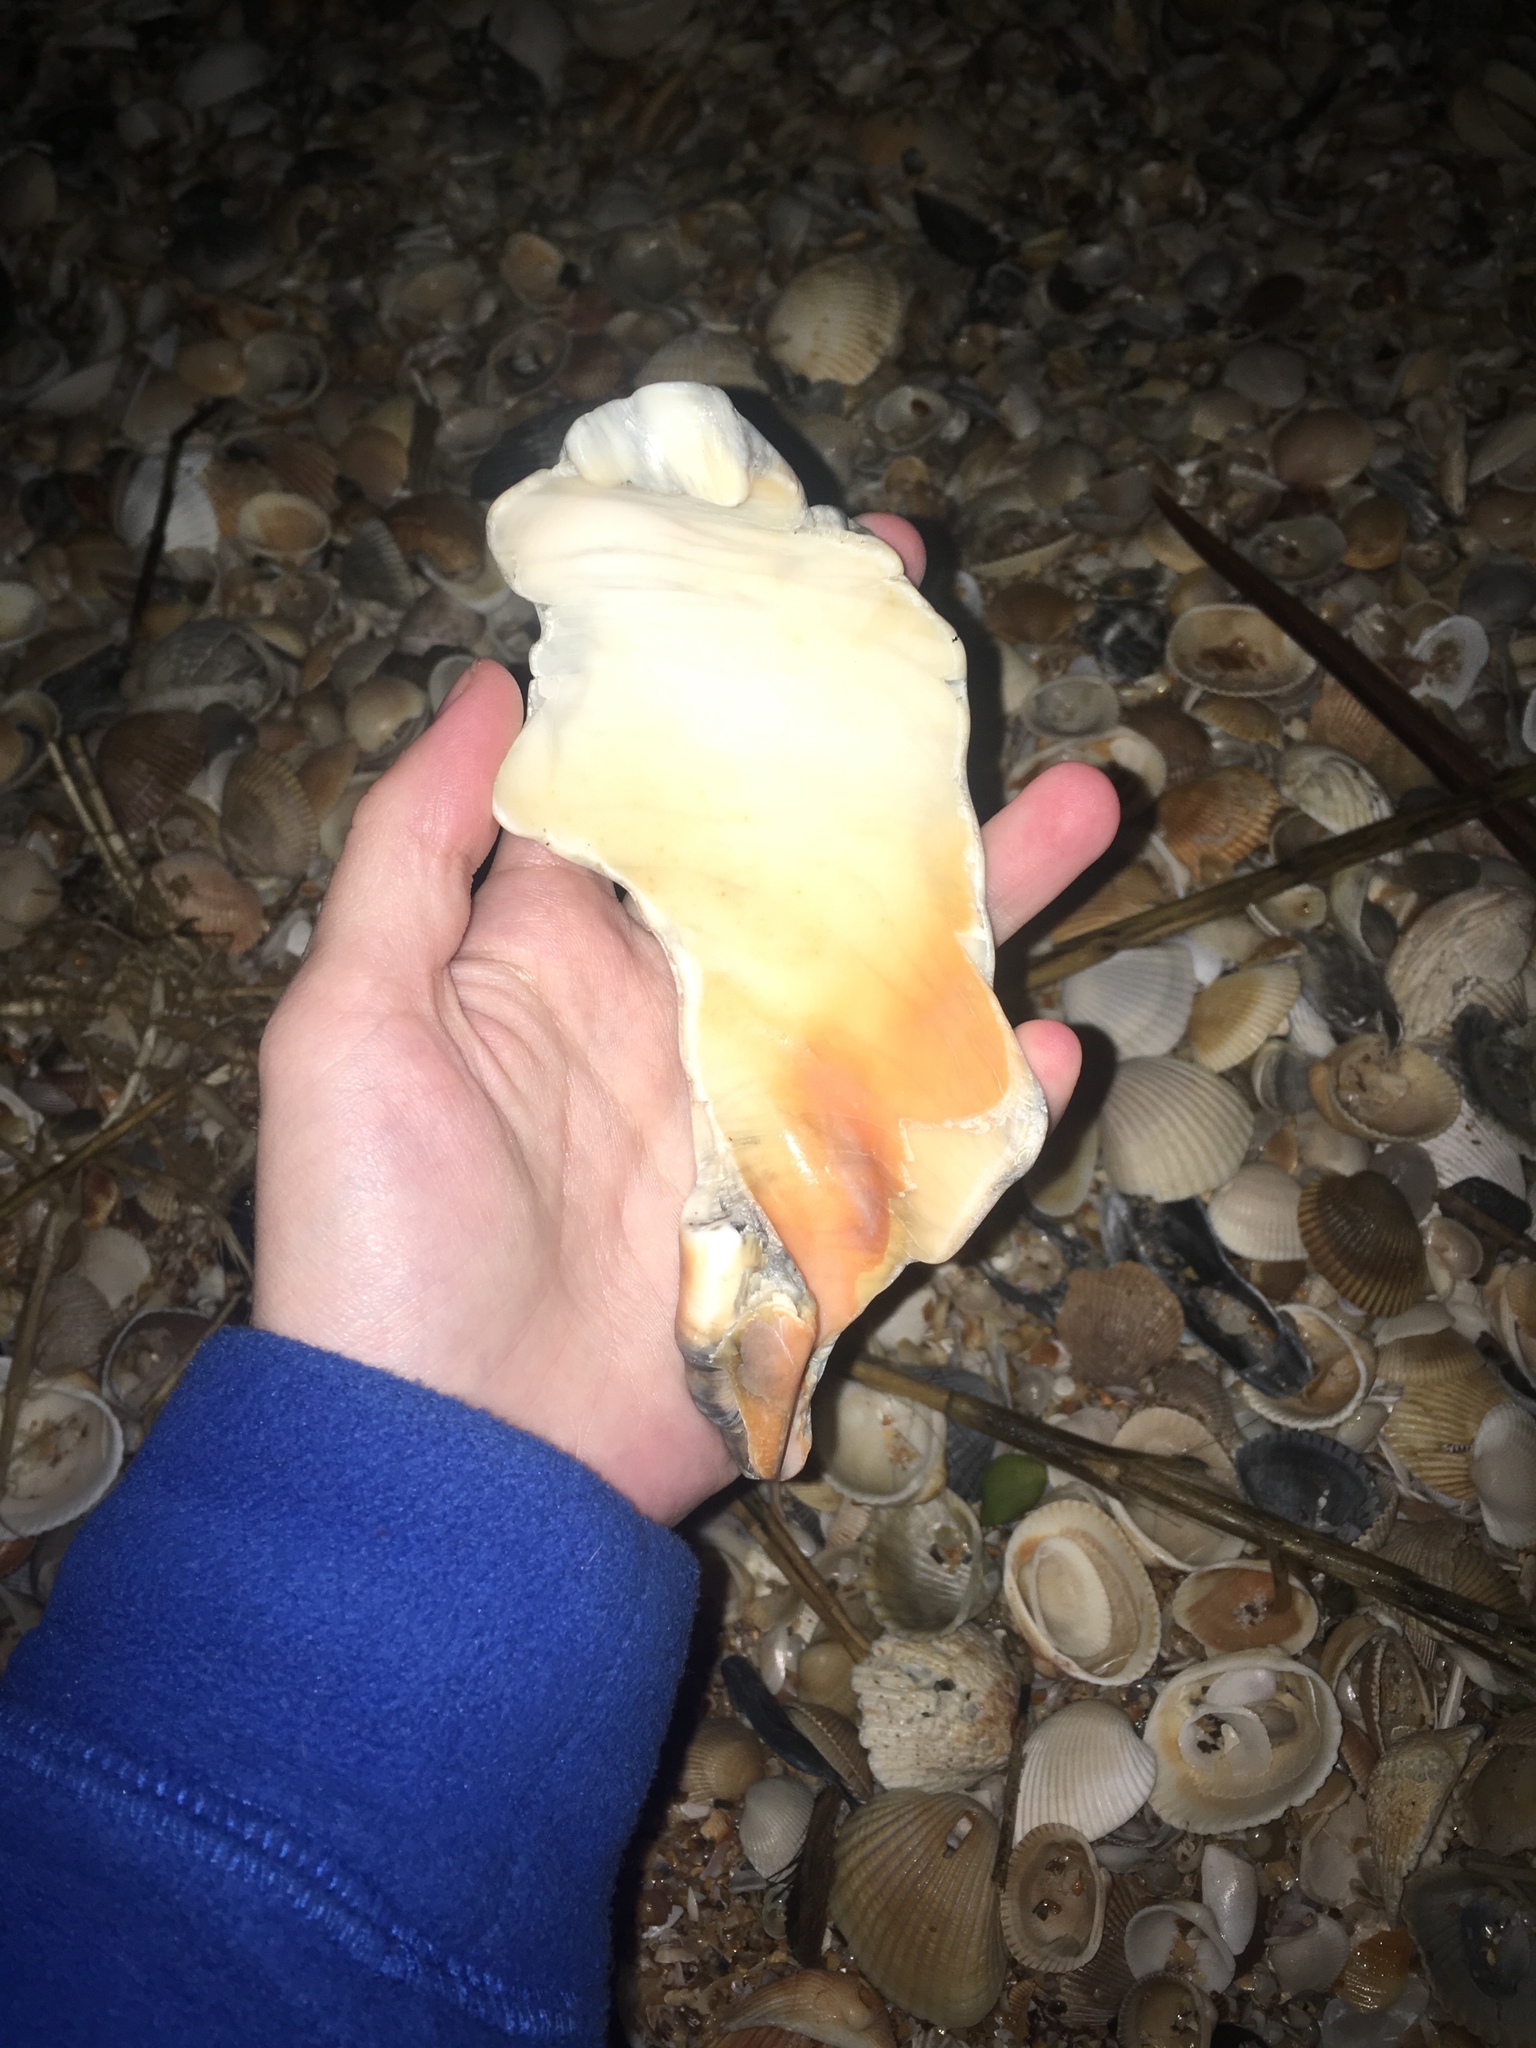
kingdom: Animalia
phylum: Mollusca
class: Gastropoda
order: Neogastropoda
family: Busyconidae
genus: Busycon
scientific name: Busycon carica
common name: Knobbed whelk
